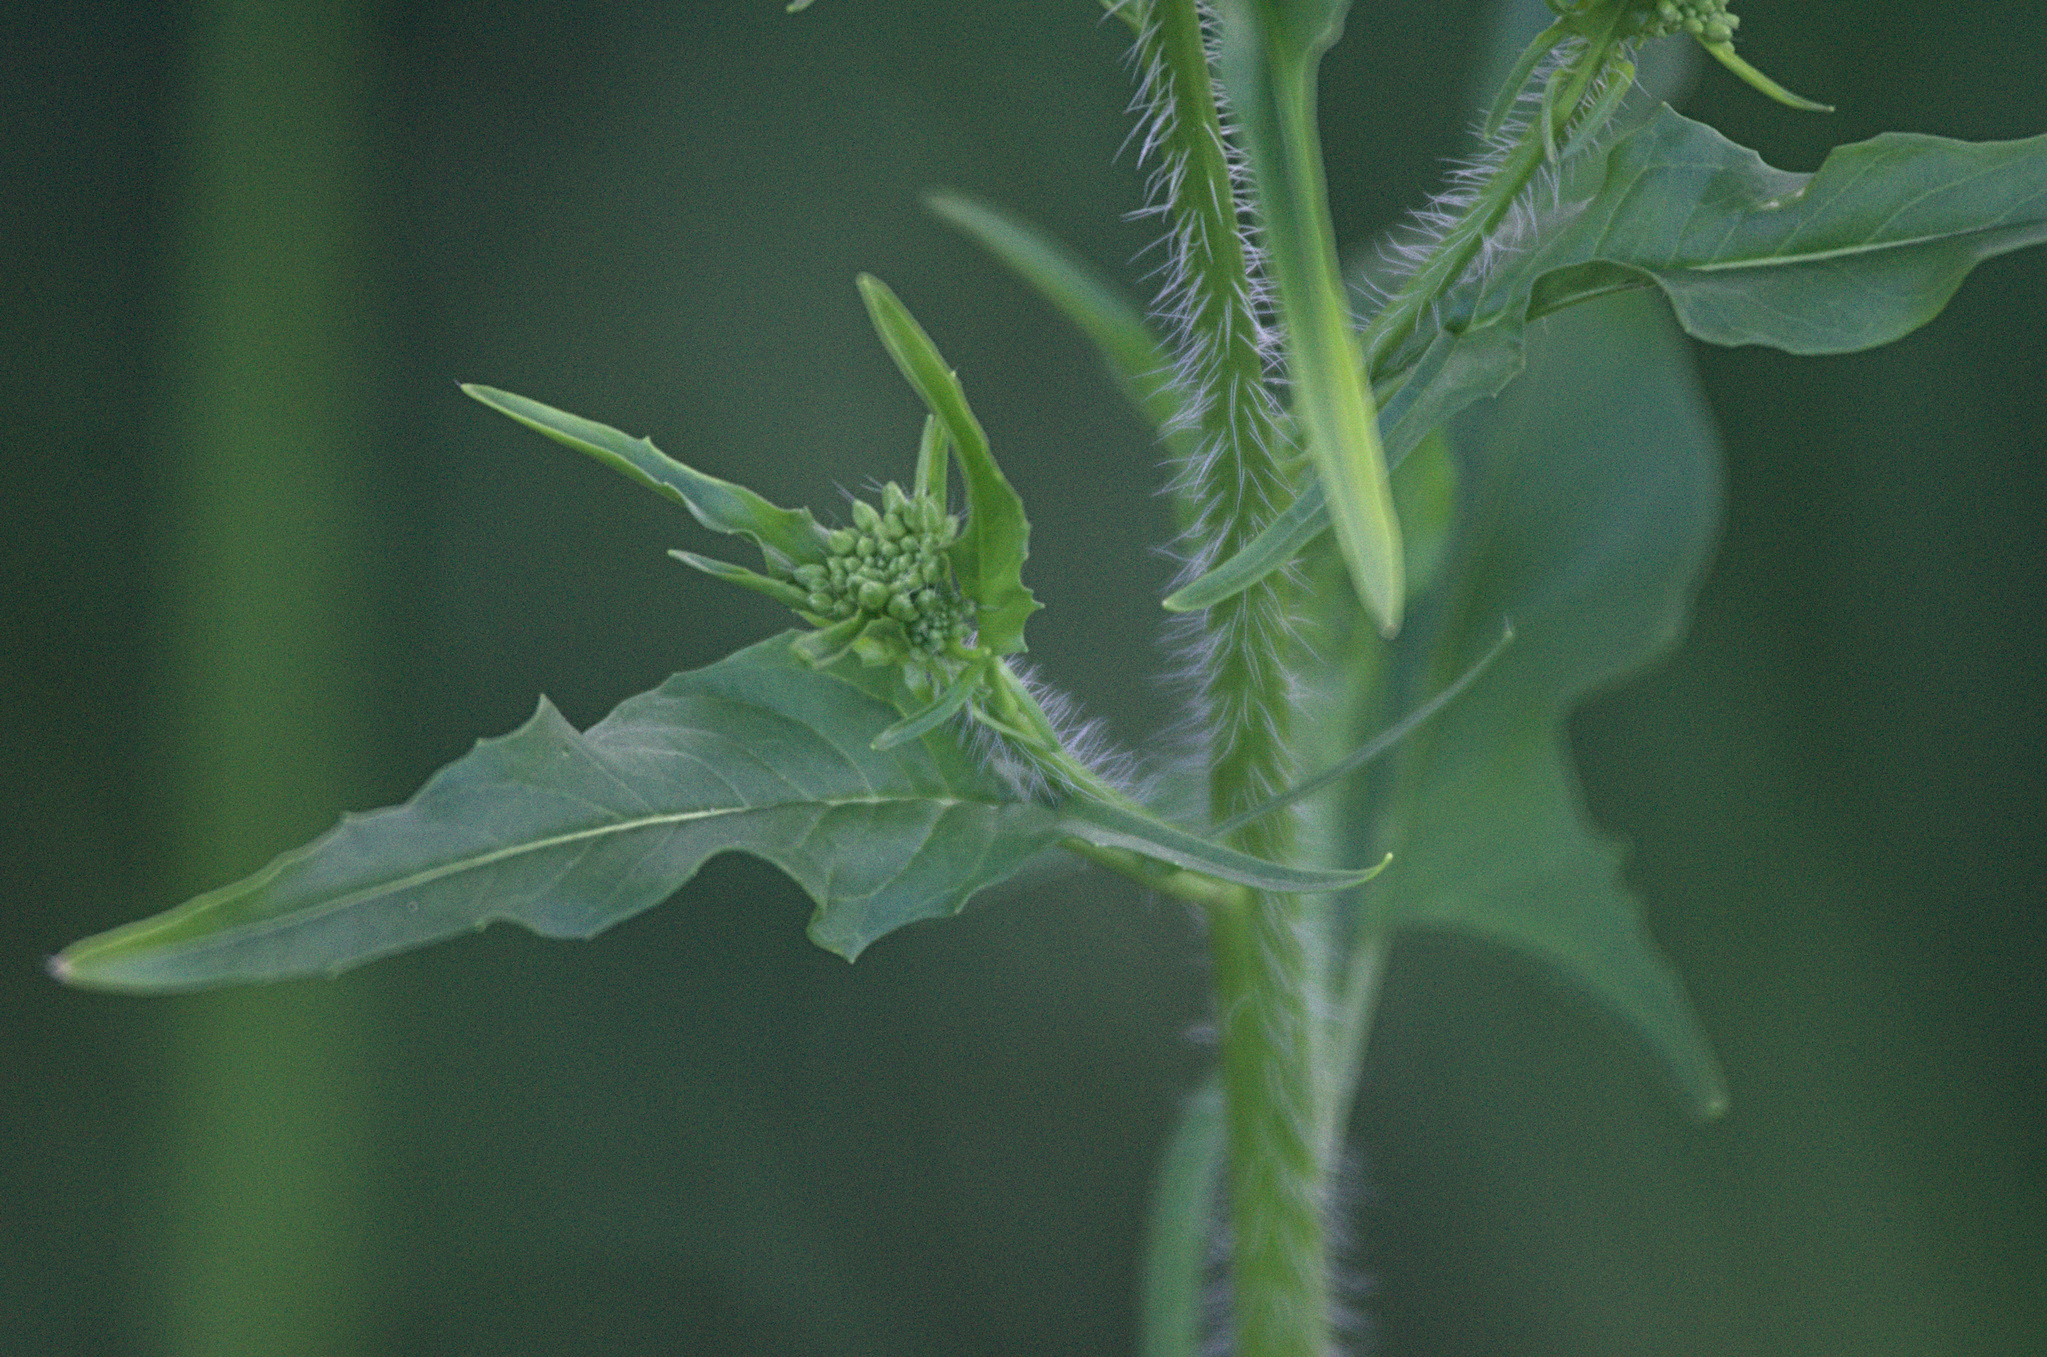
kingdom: Plantae
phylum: Tracheophyta
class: Magnoliopsida
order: Brassicales
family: Brassicaceae
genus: Sisymbrium
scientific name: Sisymbrium loeselii
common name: False london-rocket
